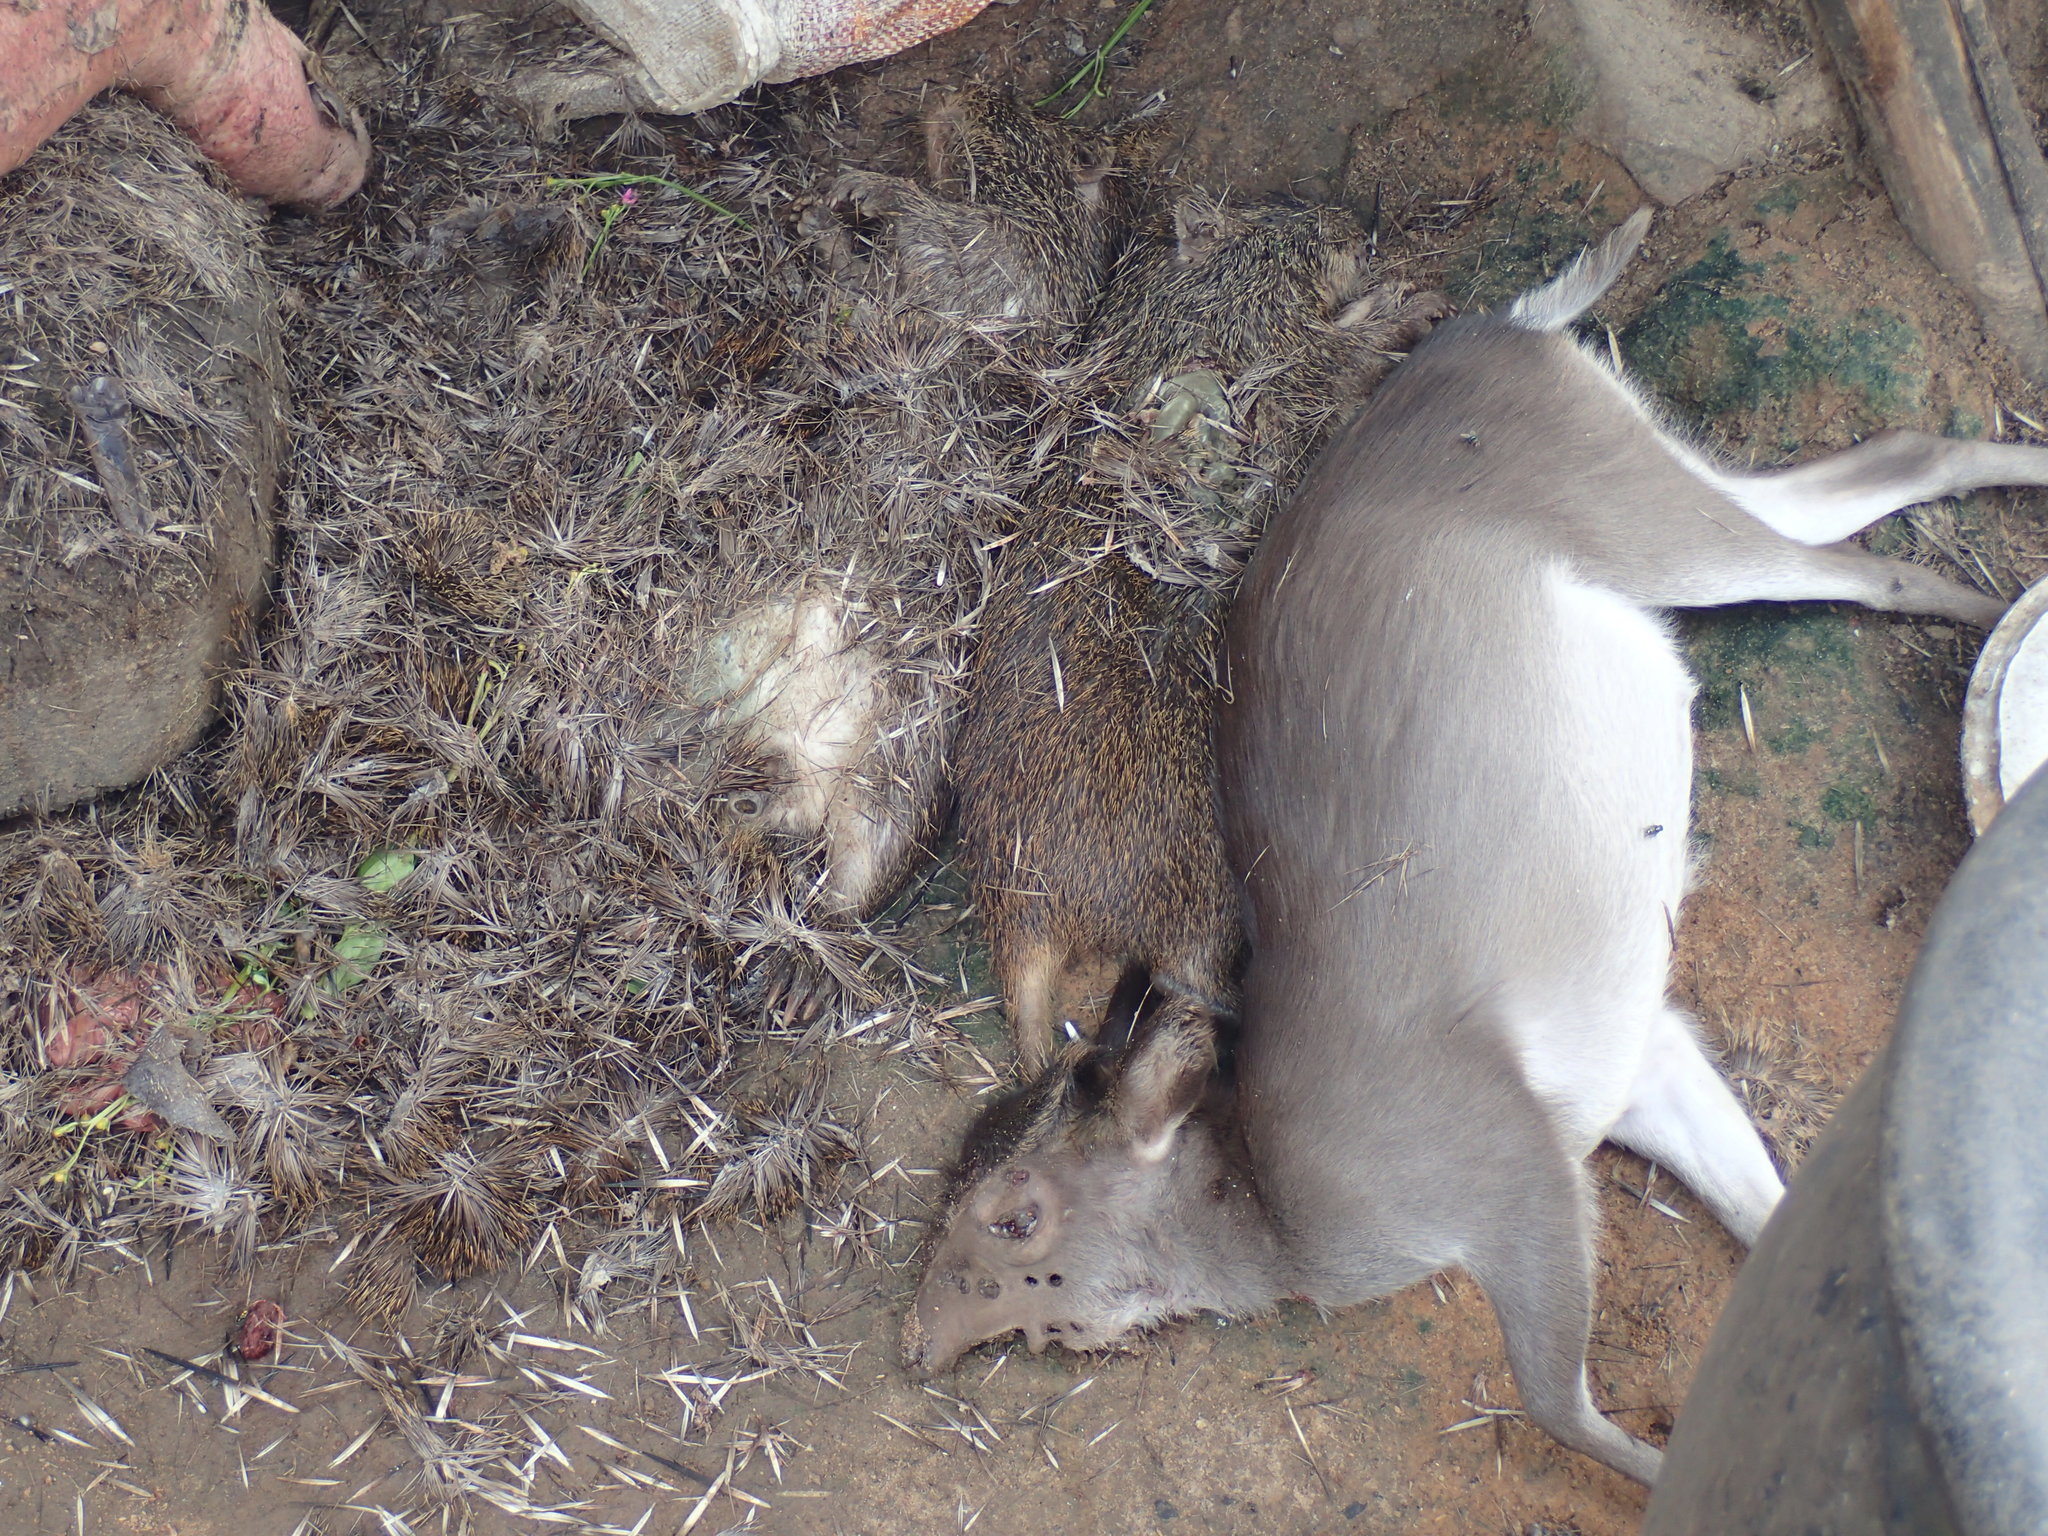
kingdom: Animalia
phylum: Chordata
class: Mammalia
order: Artiodactyla
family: Bovidae
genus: Philantomba
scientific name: Philantomba monticola
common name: Blue duiker
